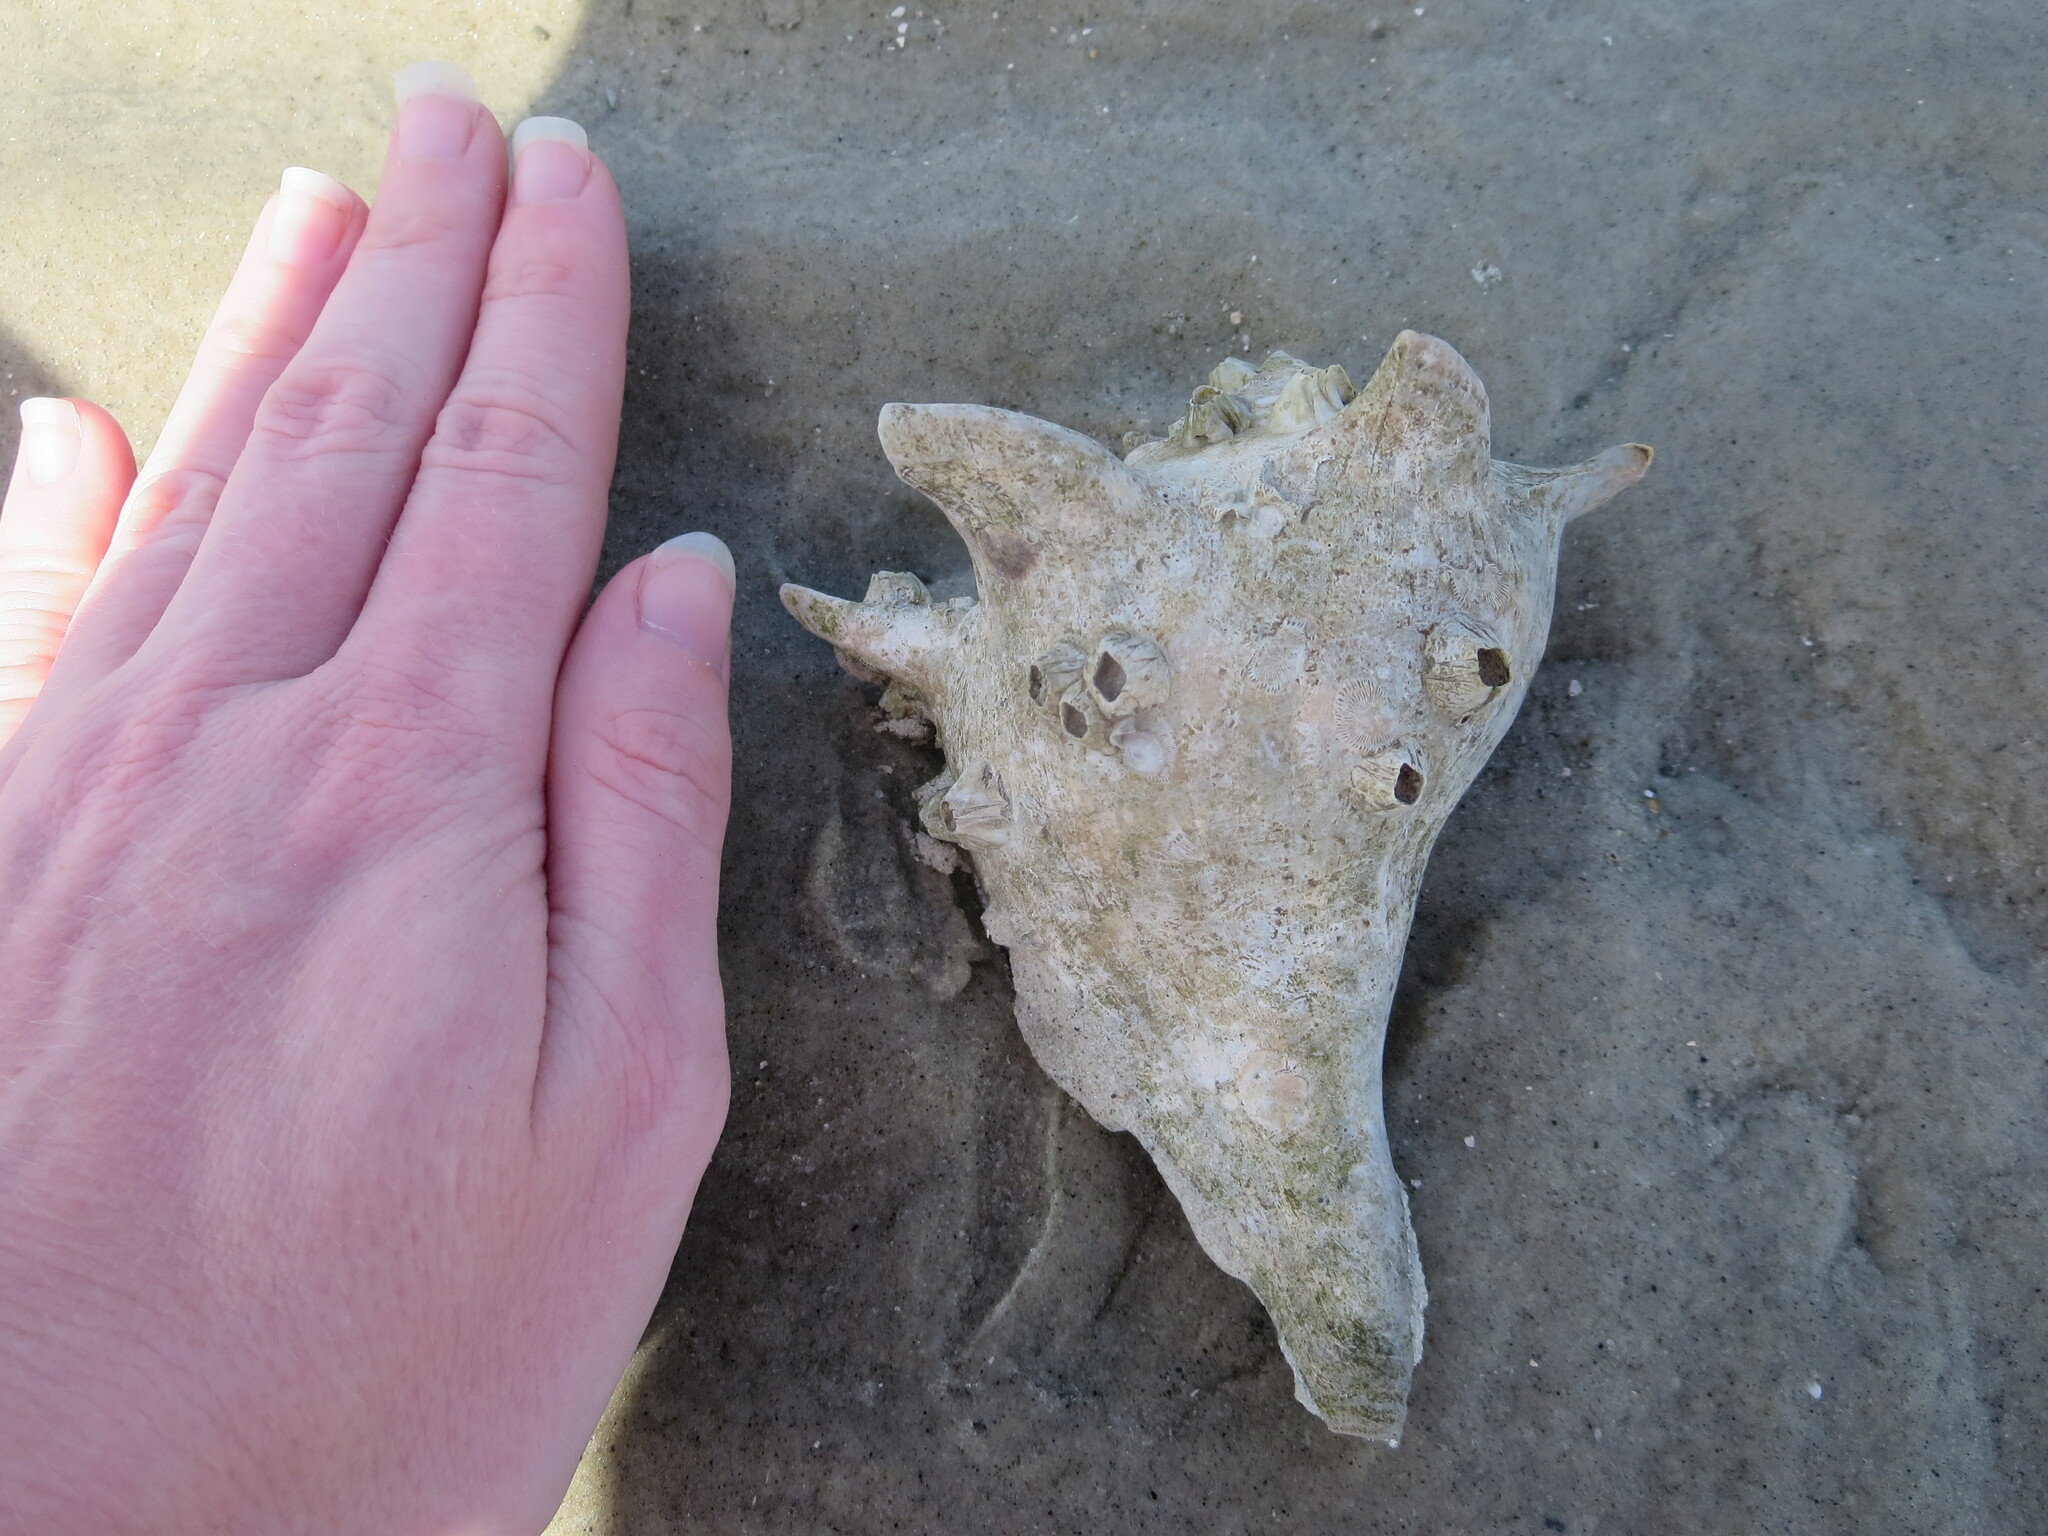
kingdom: Animalia
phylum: Arthropoda
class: Malacostraca
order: Decapoda
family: Diogenidae
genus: Clibanarius
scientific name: Clibanarius vittatus
